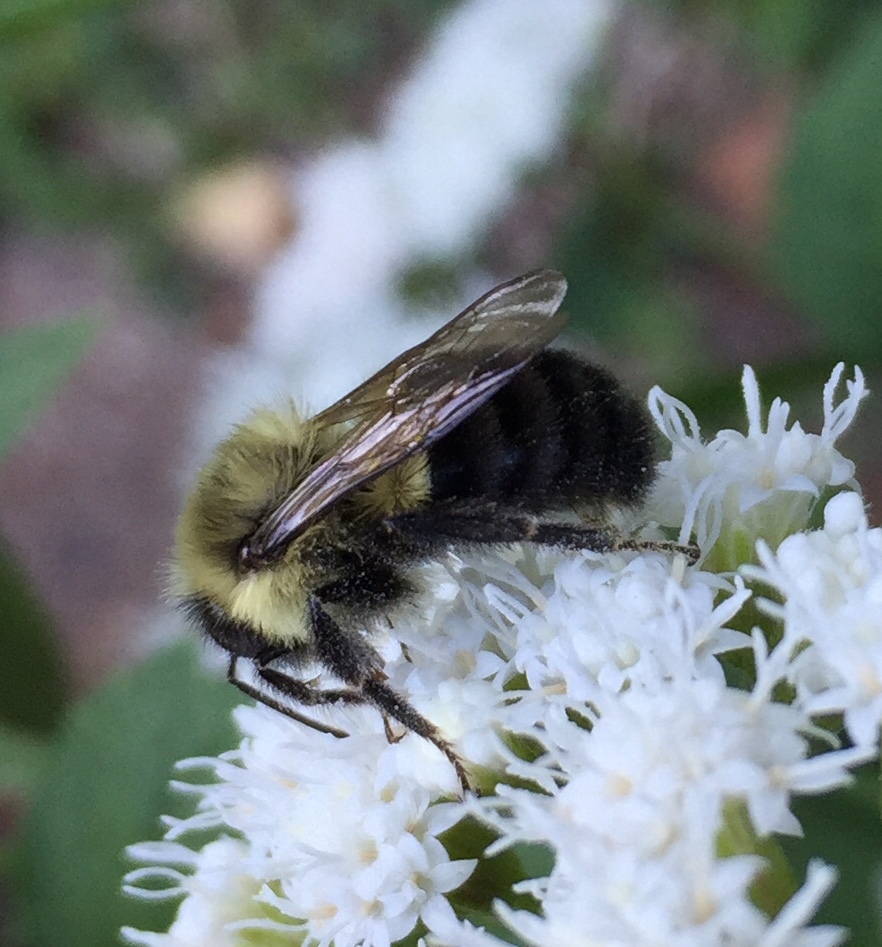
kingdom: Animalia
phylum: Arthropoda
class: Insecta
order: Hymenoptera
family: Apidae
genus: Bombus
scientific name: Bombus impatiens
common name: Common eastern bumble bee
